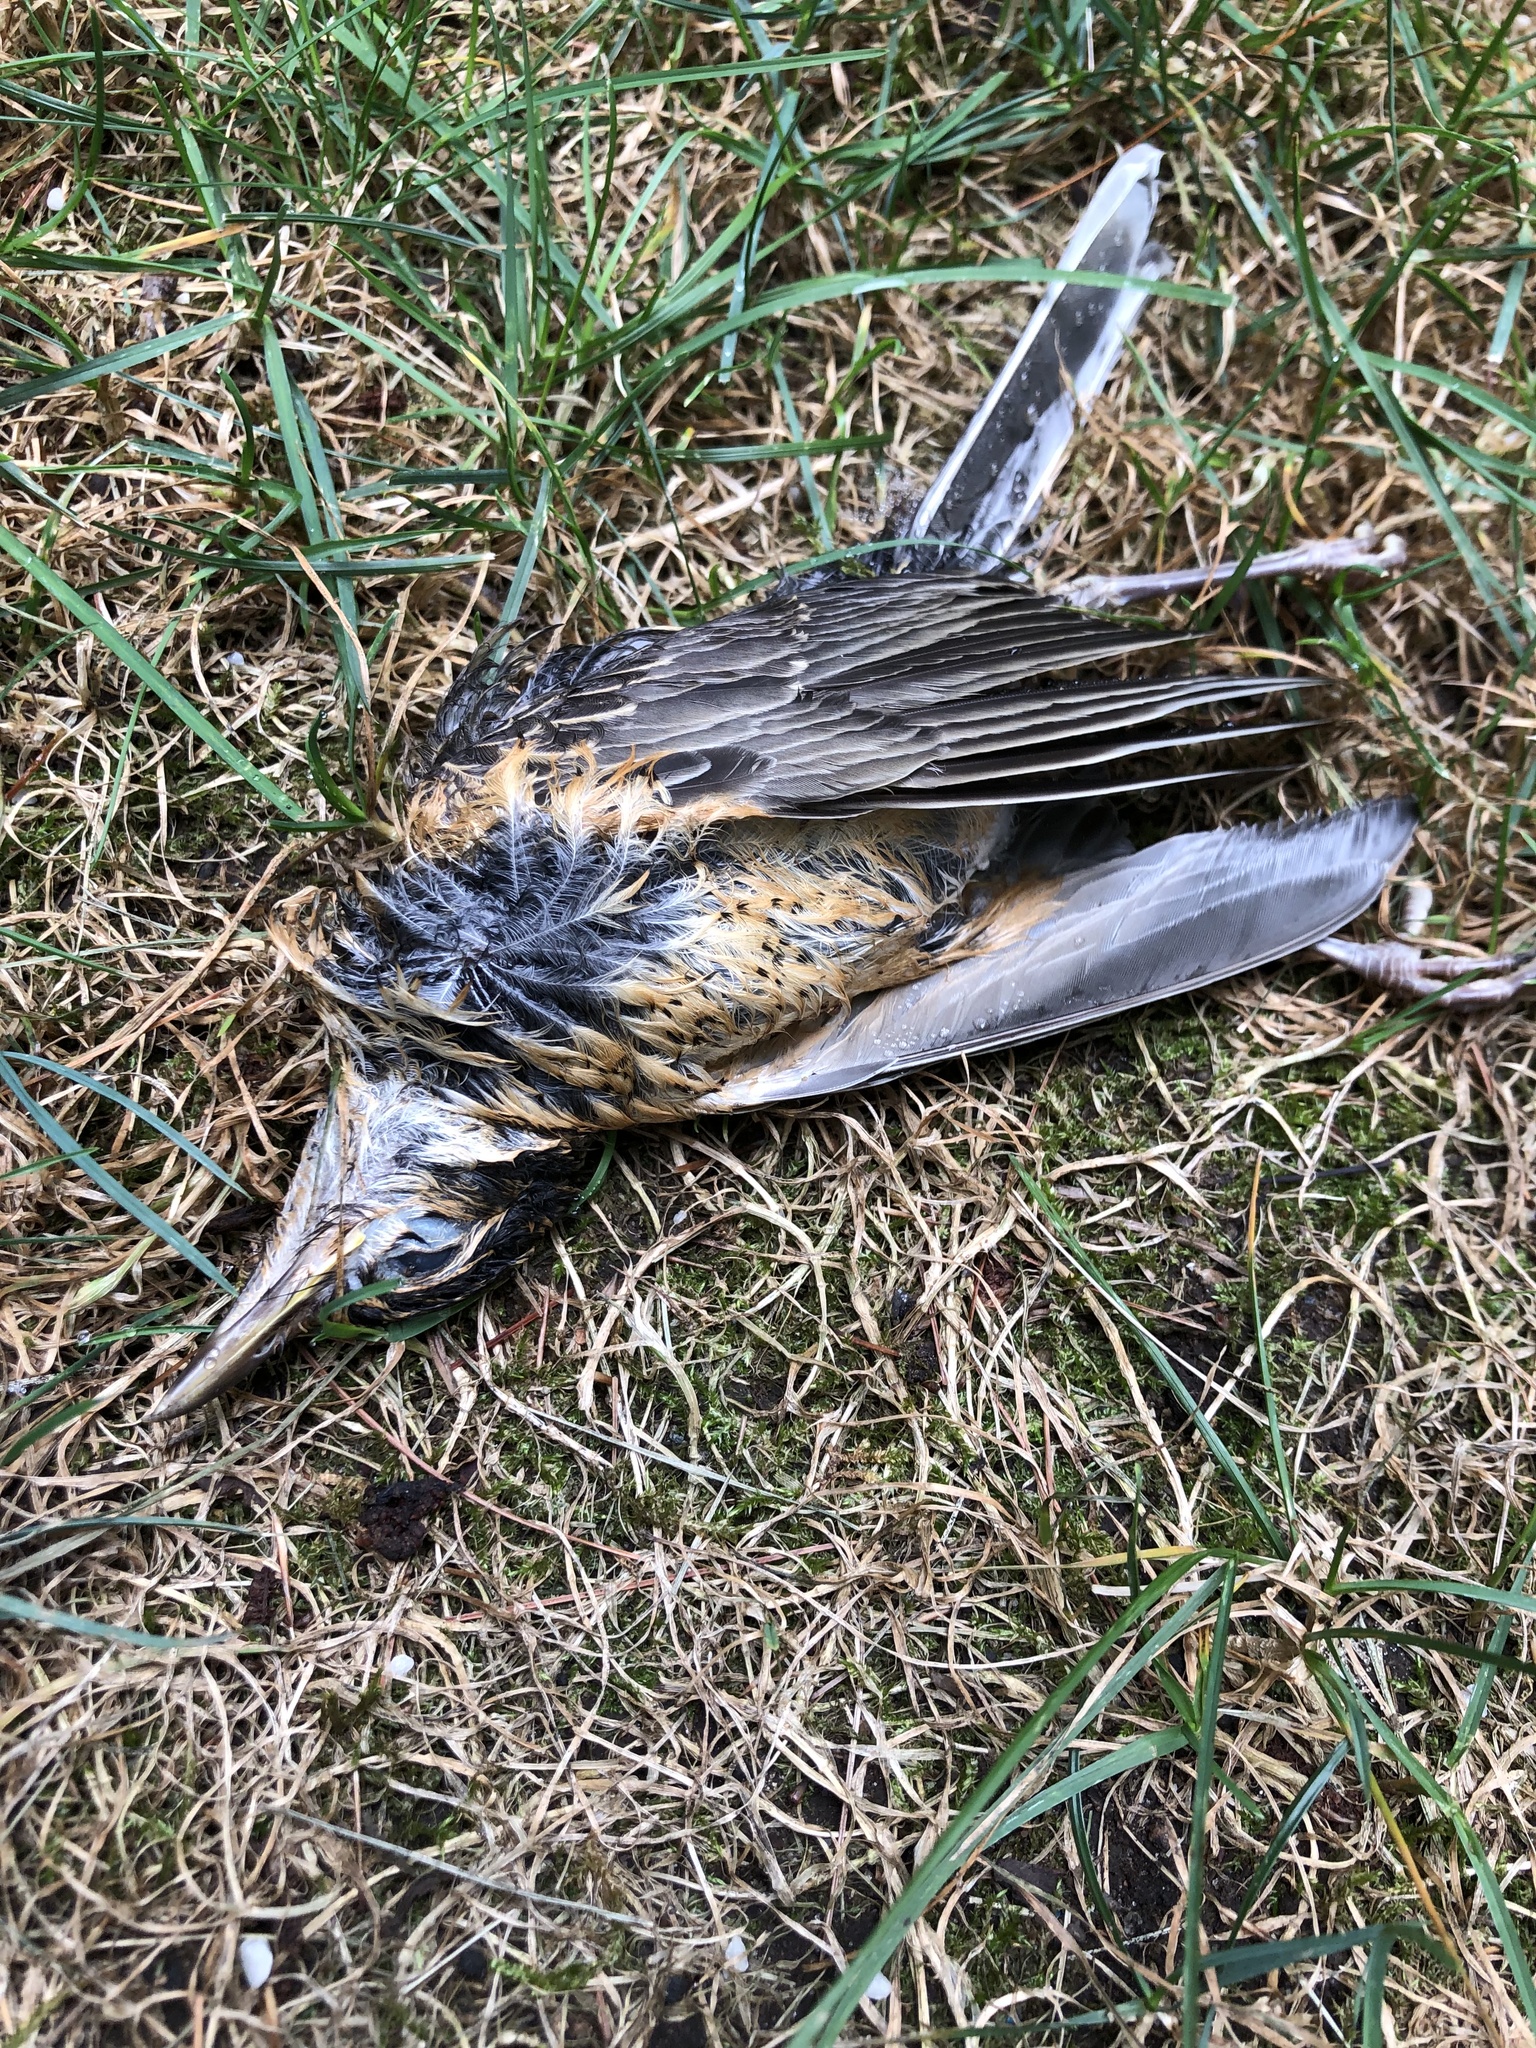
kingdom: Animalia
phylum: Chordata
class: Aves
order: Passeriformes
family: Turdidae
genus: Turdus
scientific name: Turdus migratorius
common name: American robin
